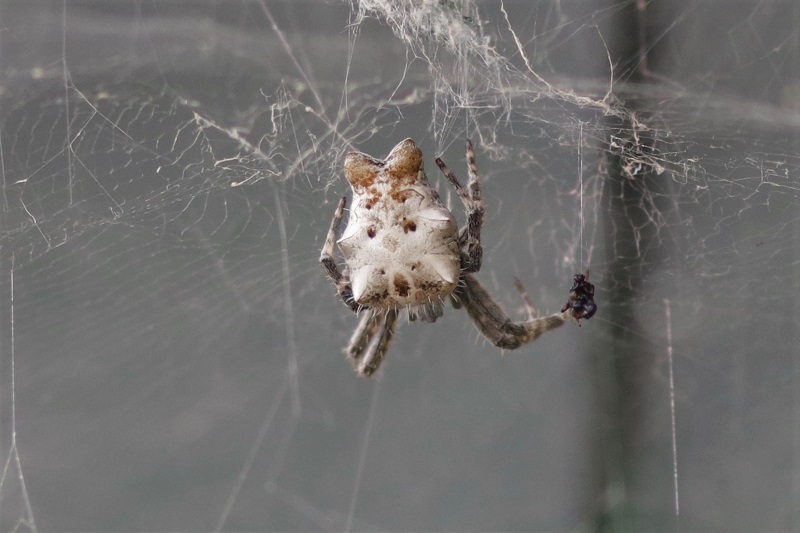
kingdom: Animalia
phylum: Arthropoda
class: Arachnida
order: Araneae
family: Araneidae
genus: Cyrtophora
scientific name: Cyrtophora citricola
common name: Orb weavers
